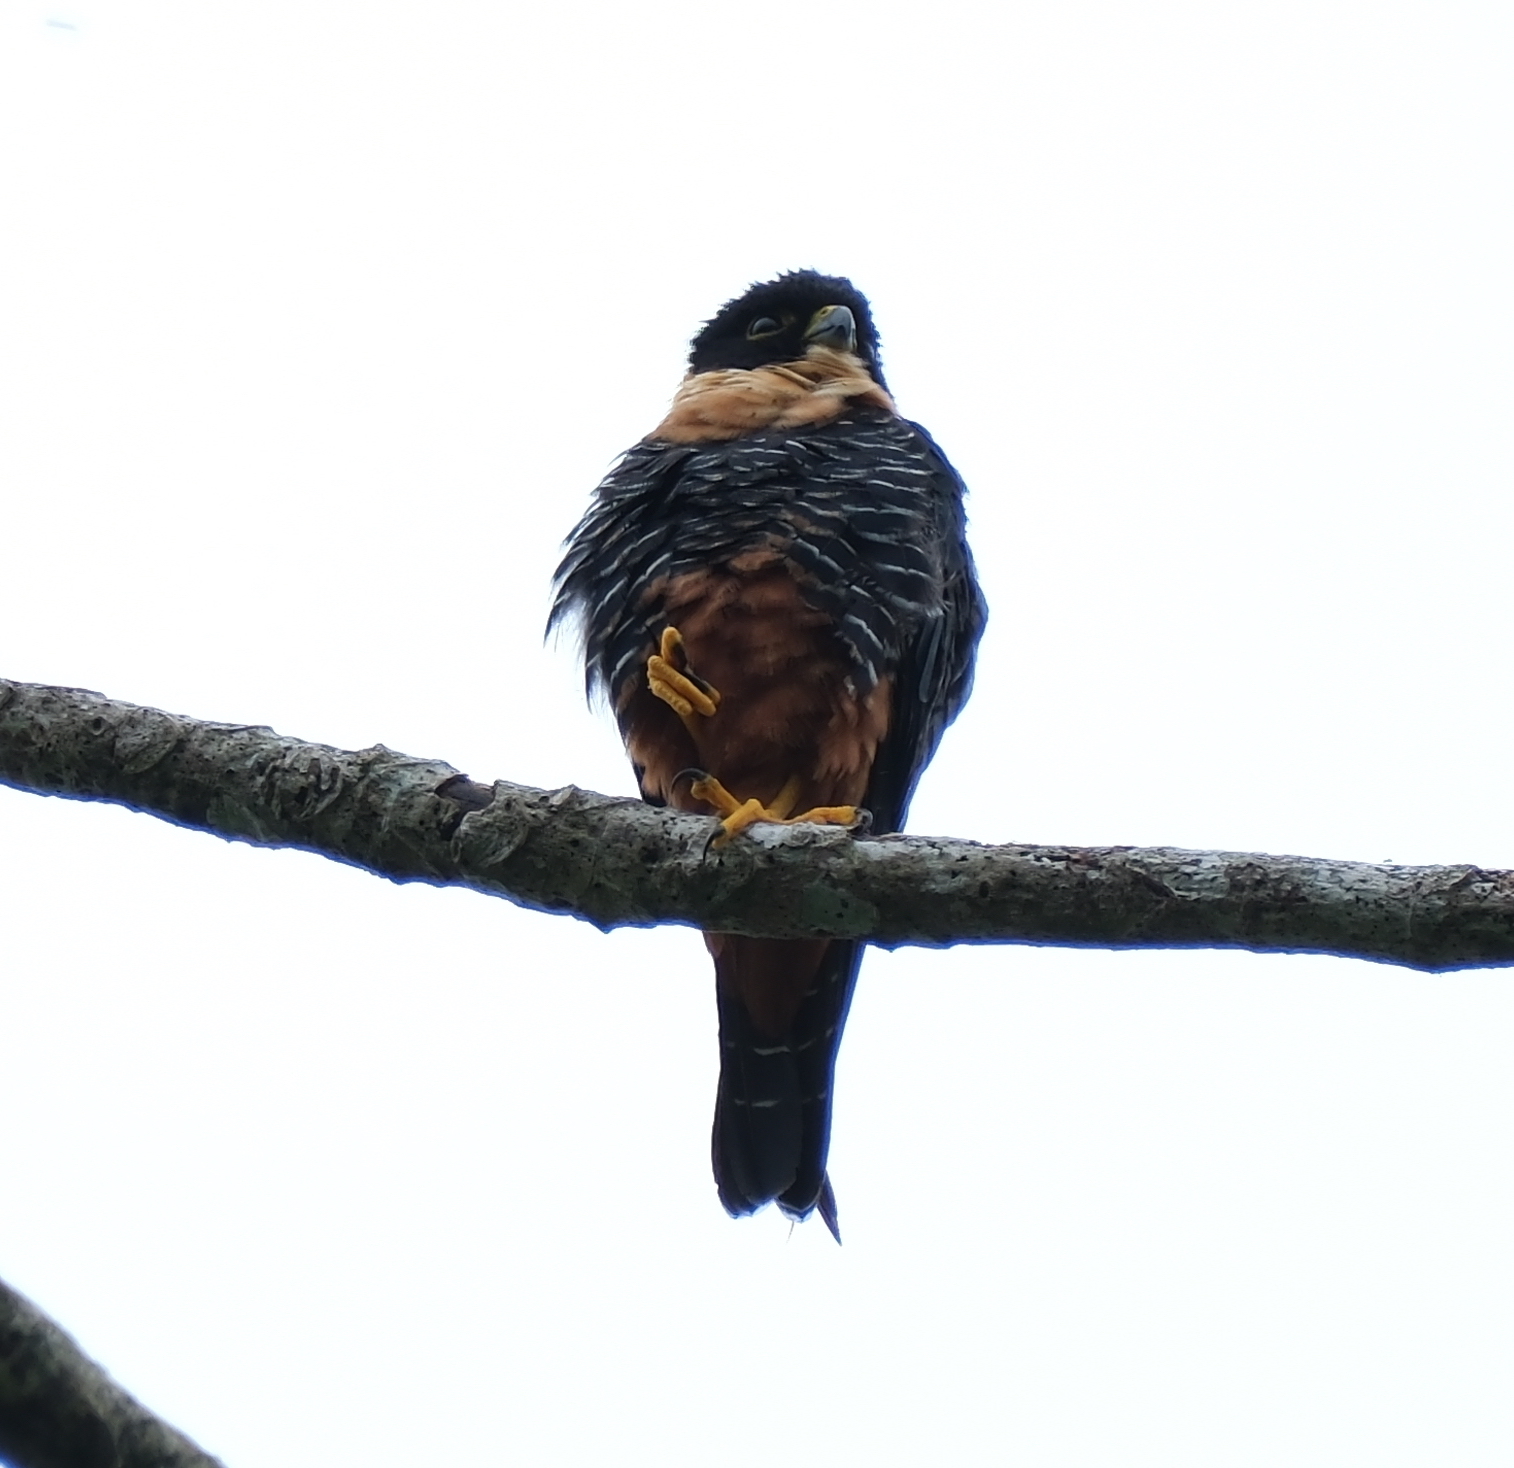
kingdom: Animalia
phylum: Chordata
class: Aves
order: Falconiformes
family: Falconidae
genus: Falco
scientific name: Falco rufigularis
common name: Bat falcon
